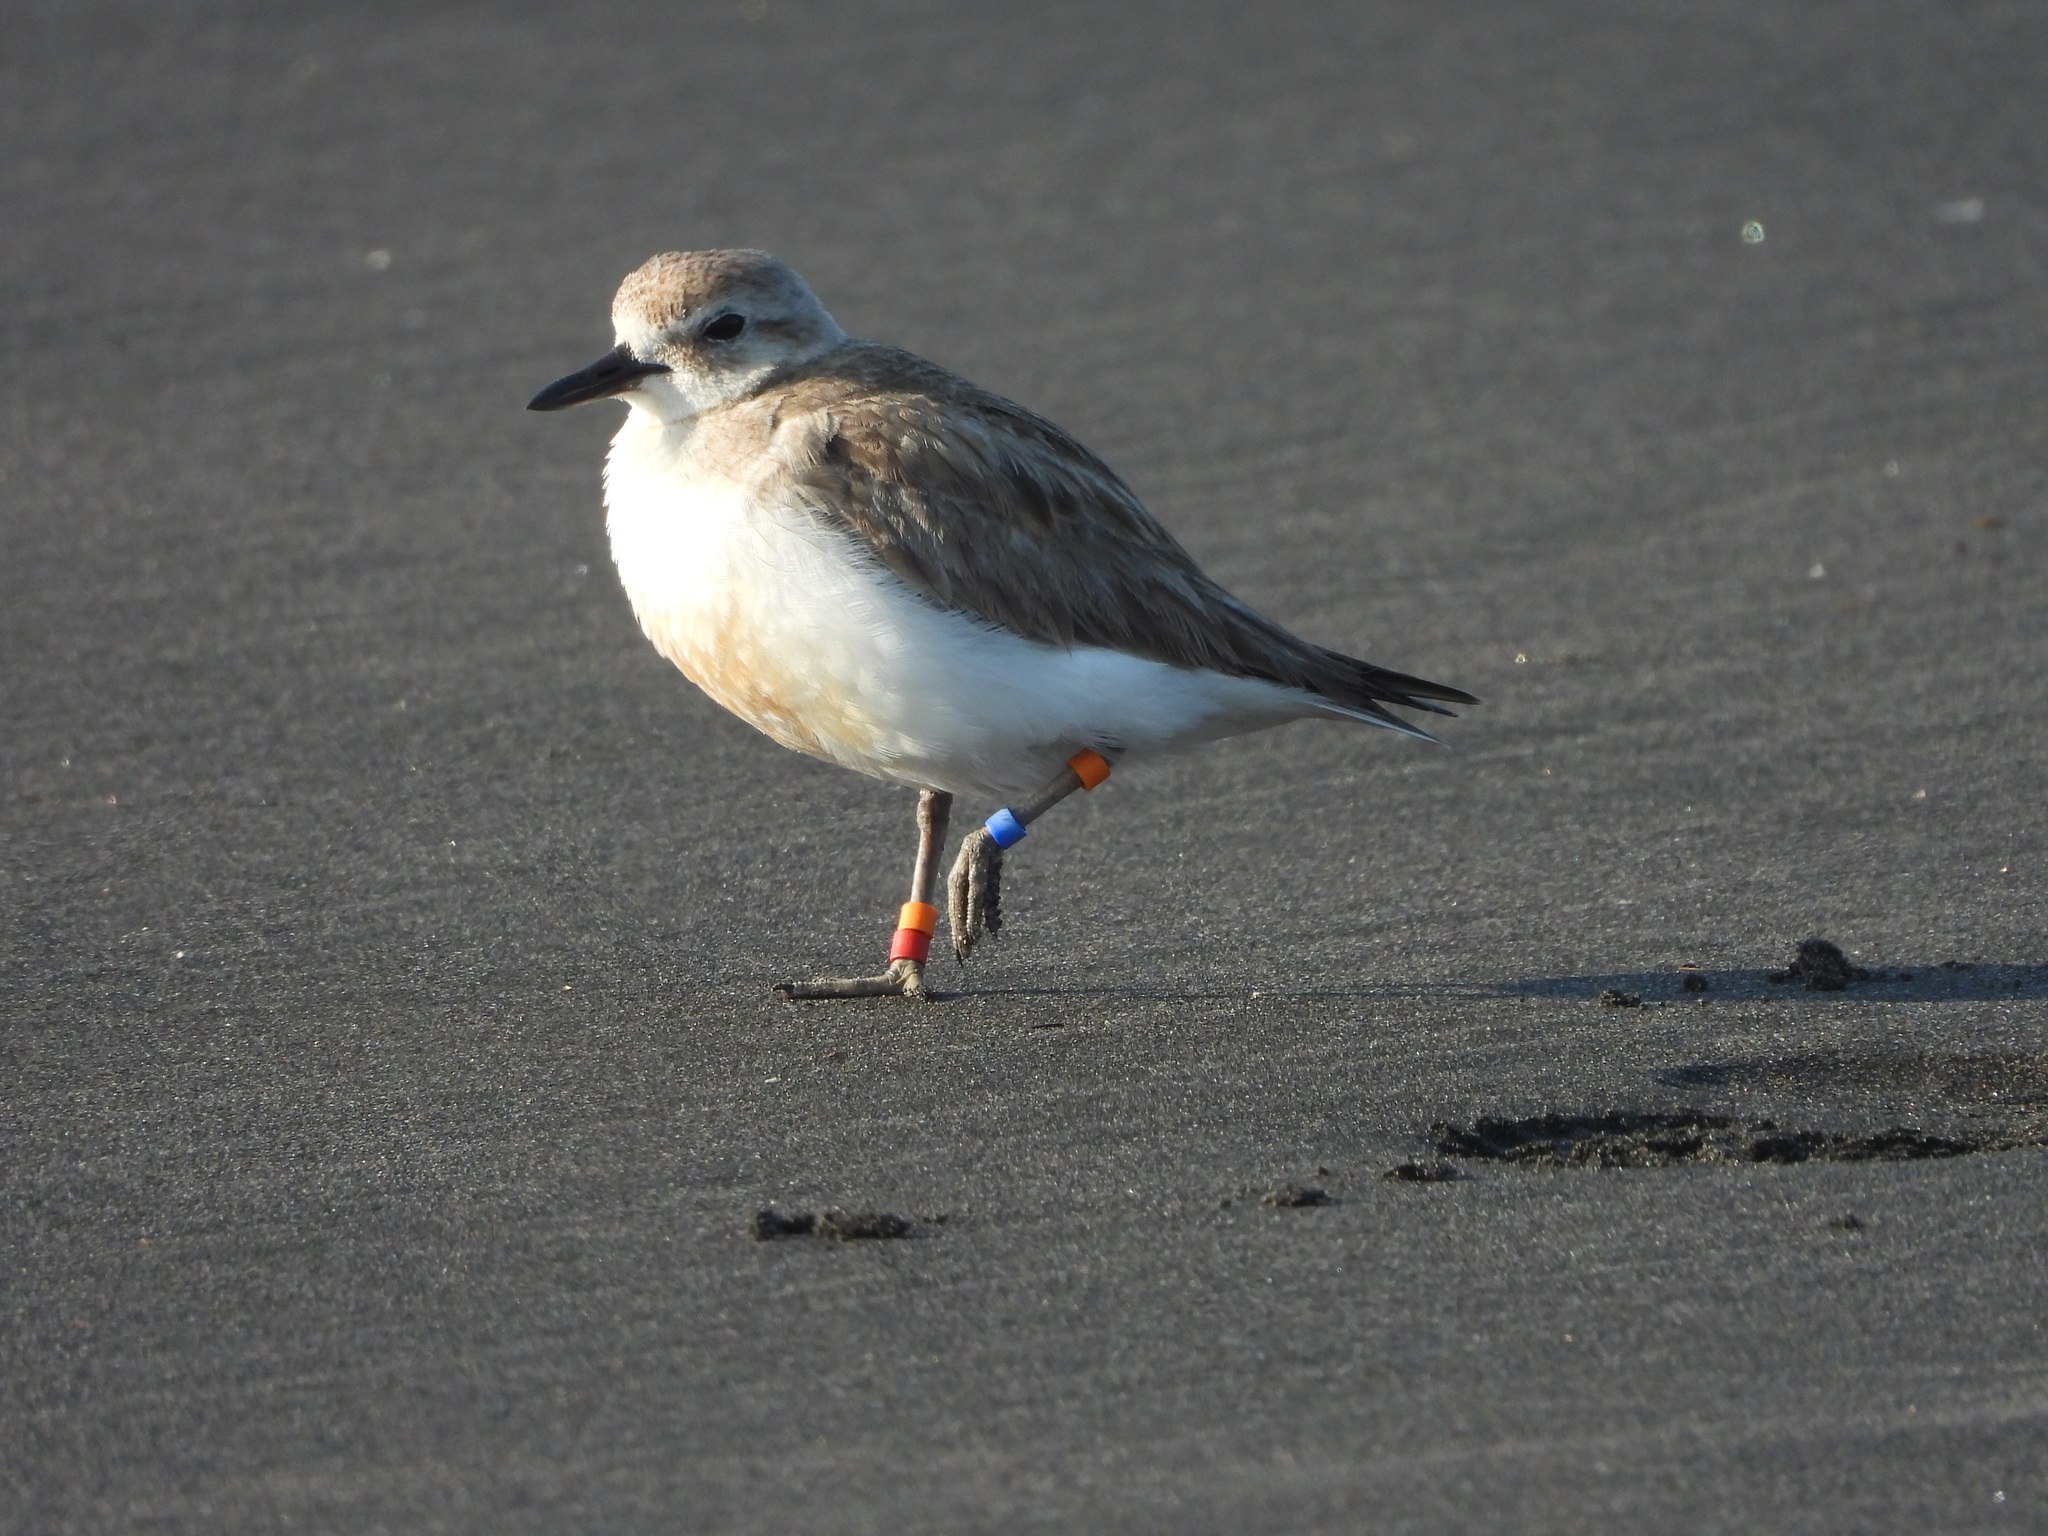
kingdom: Animalia
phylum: Chordata
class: Aves
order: Charadriiformes
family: Charadriidae
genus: Anarhynchus
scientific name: Anarhynchus
